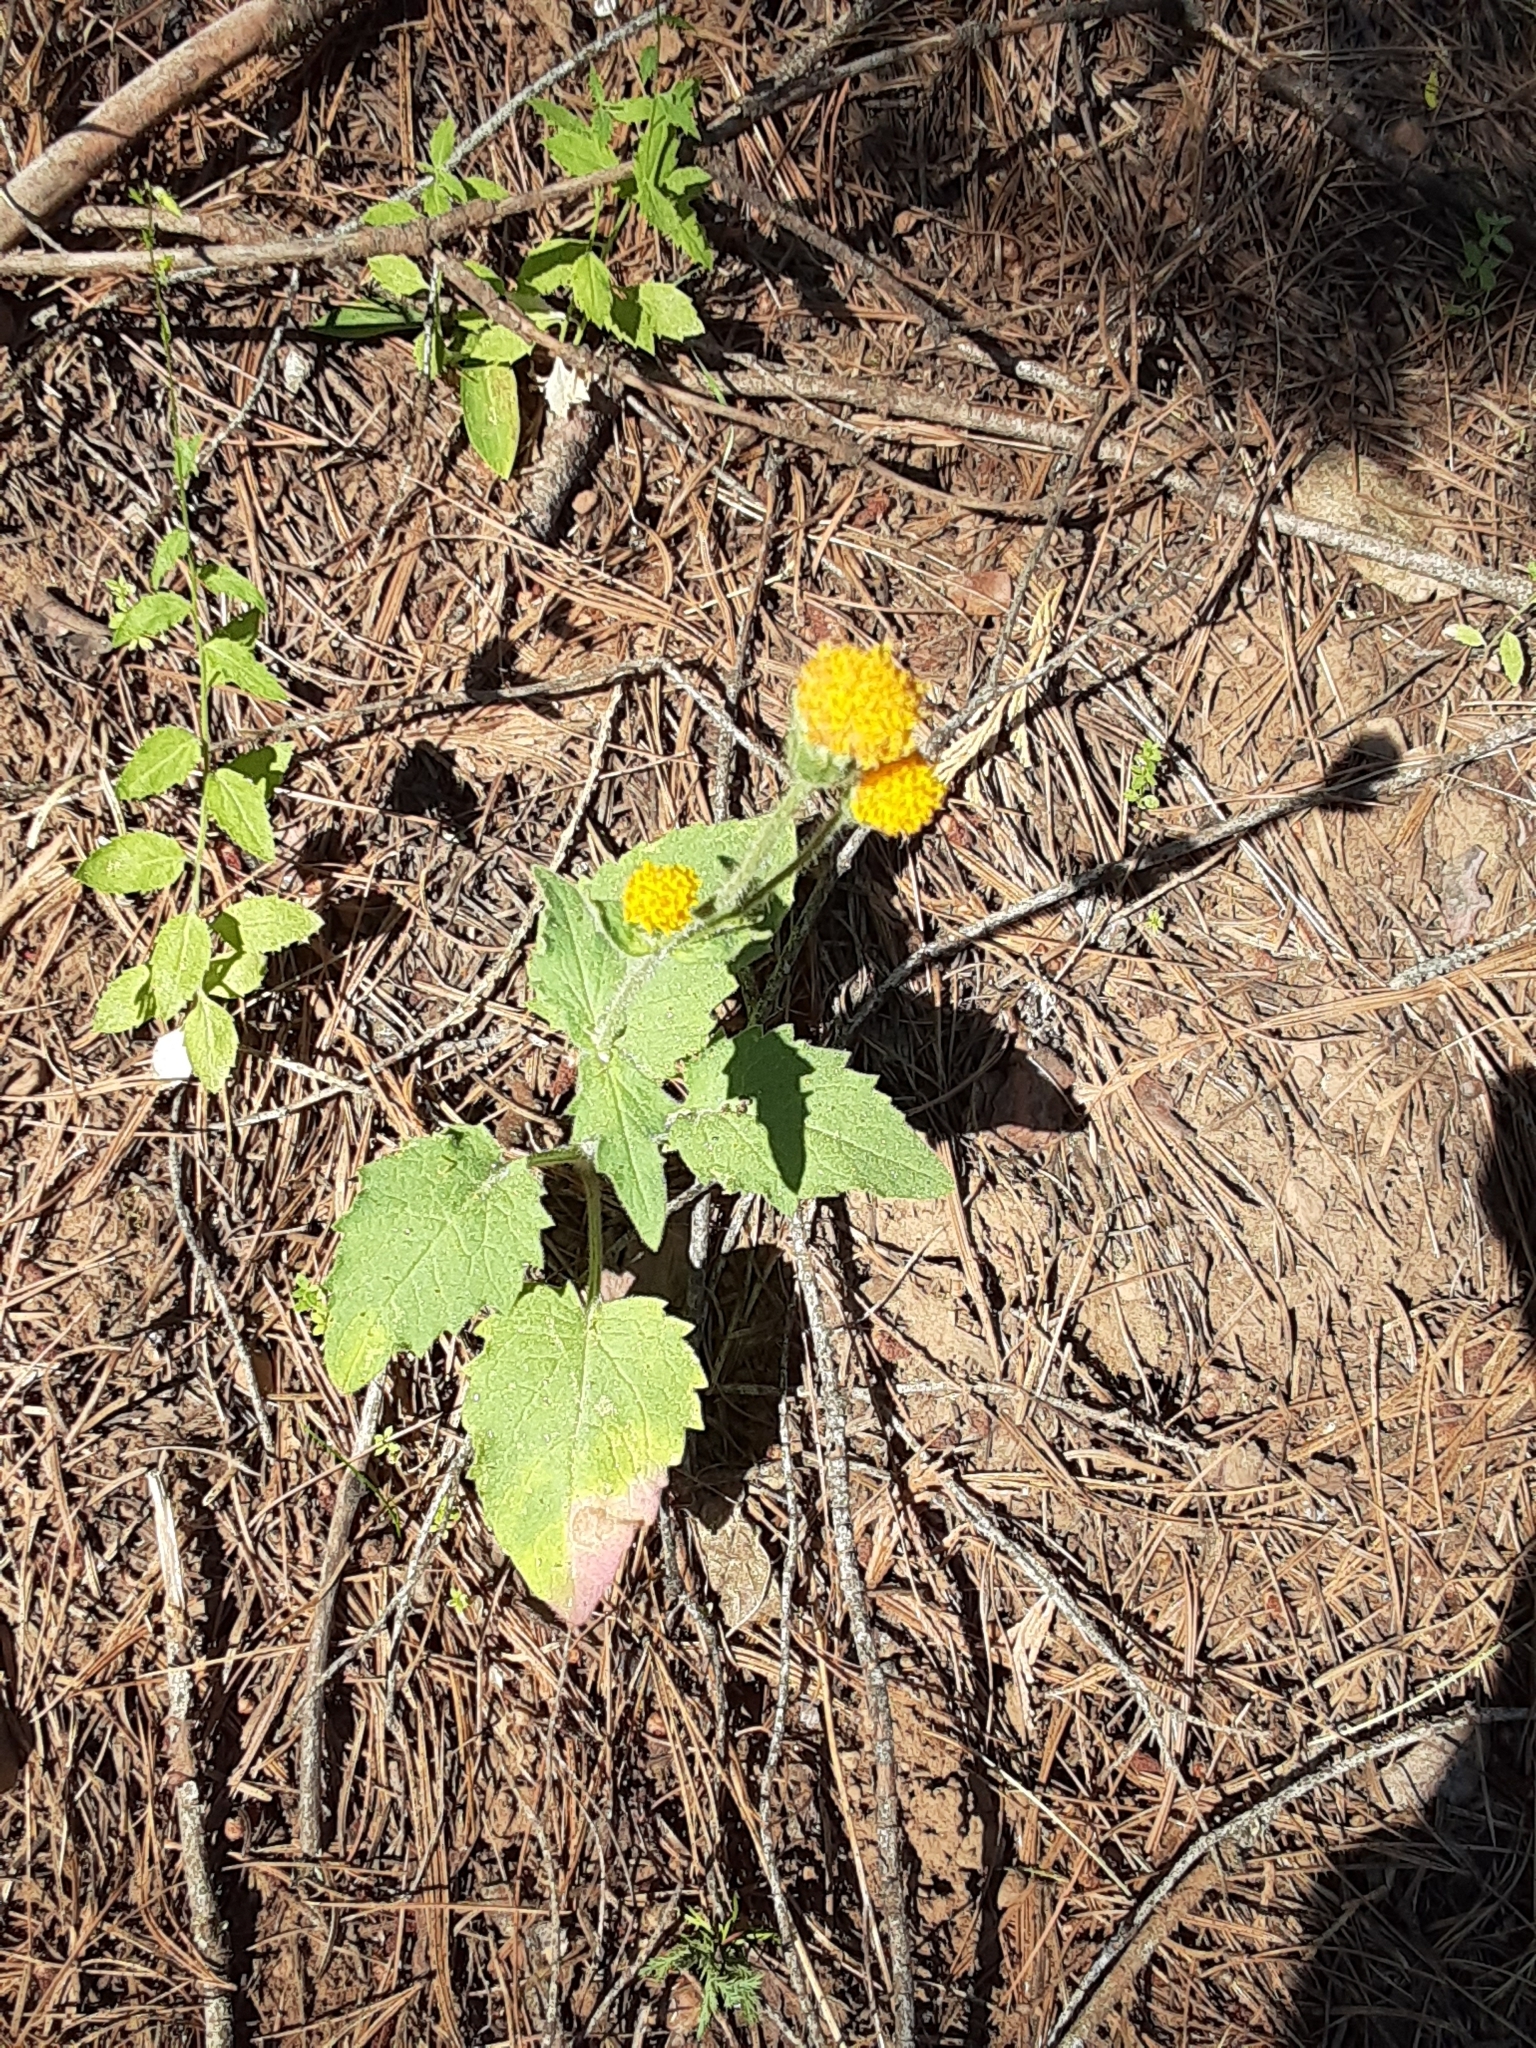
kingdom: Plantae
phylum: Tracheophyta
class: Magnoliopsida
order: Asterales
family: Asteraceae
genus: Arnica
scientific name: Arnica discoidea
